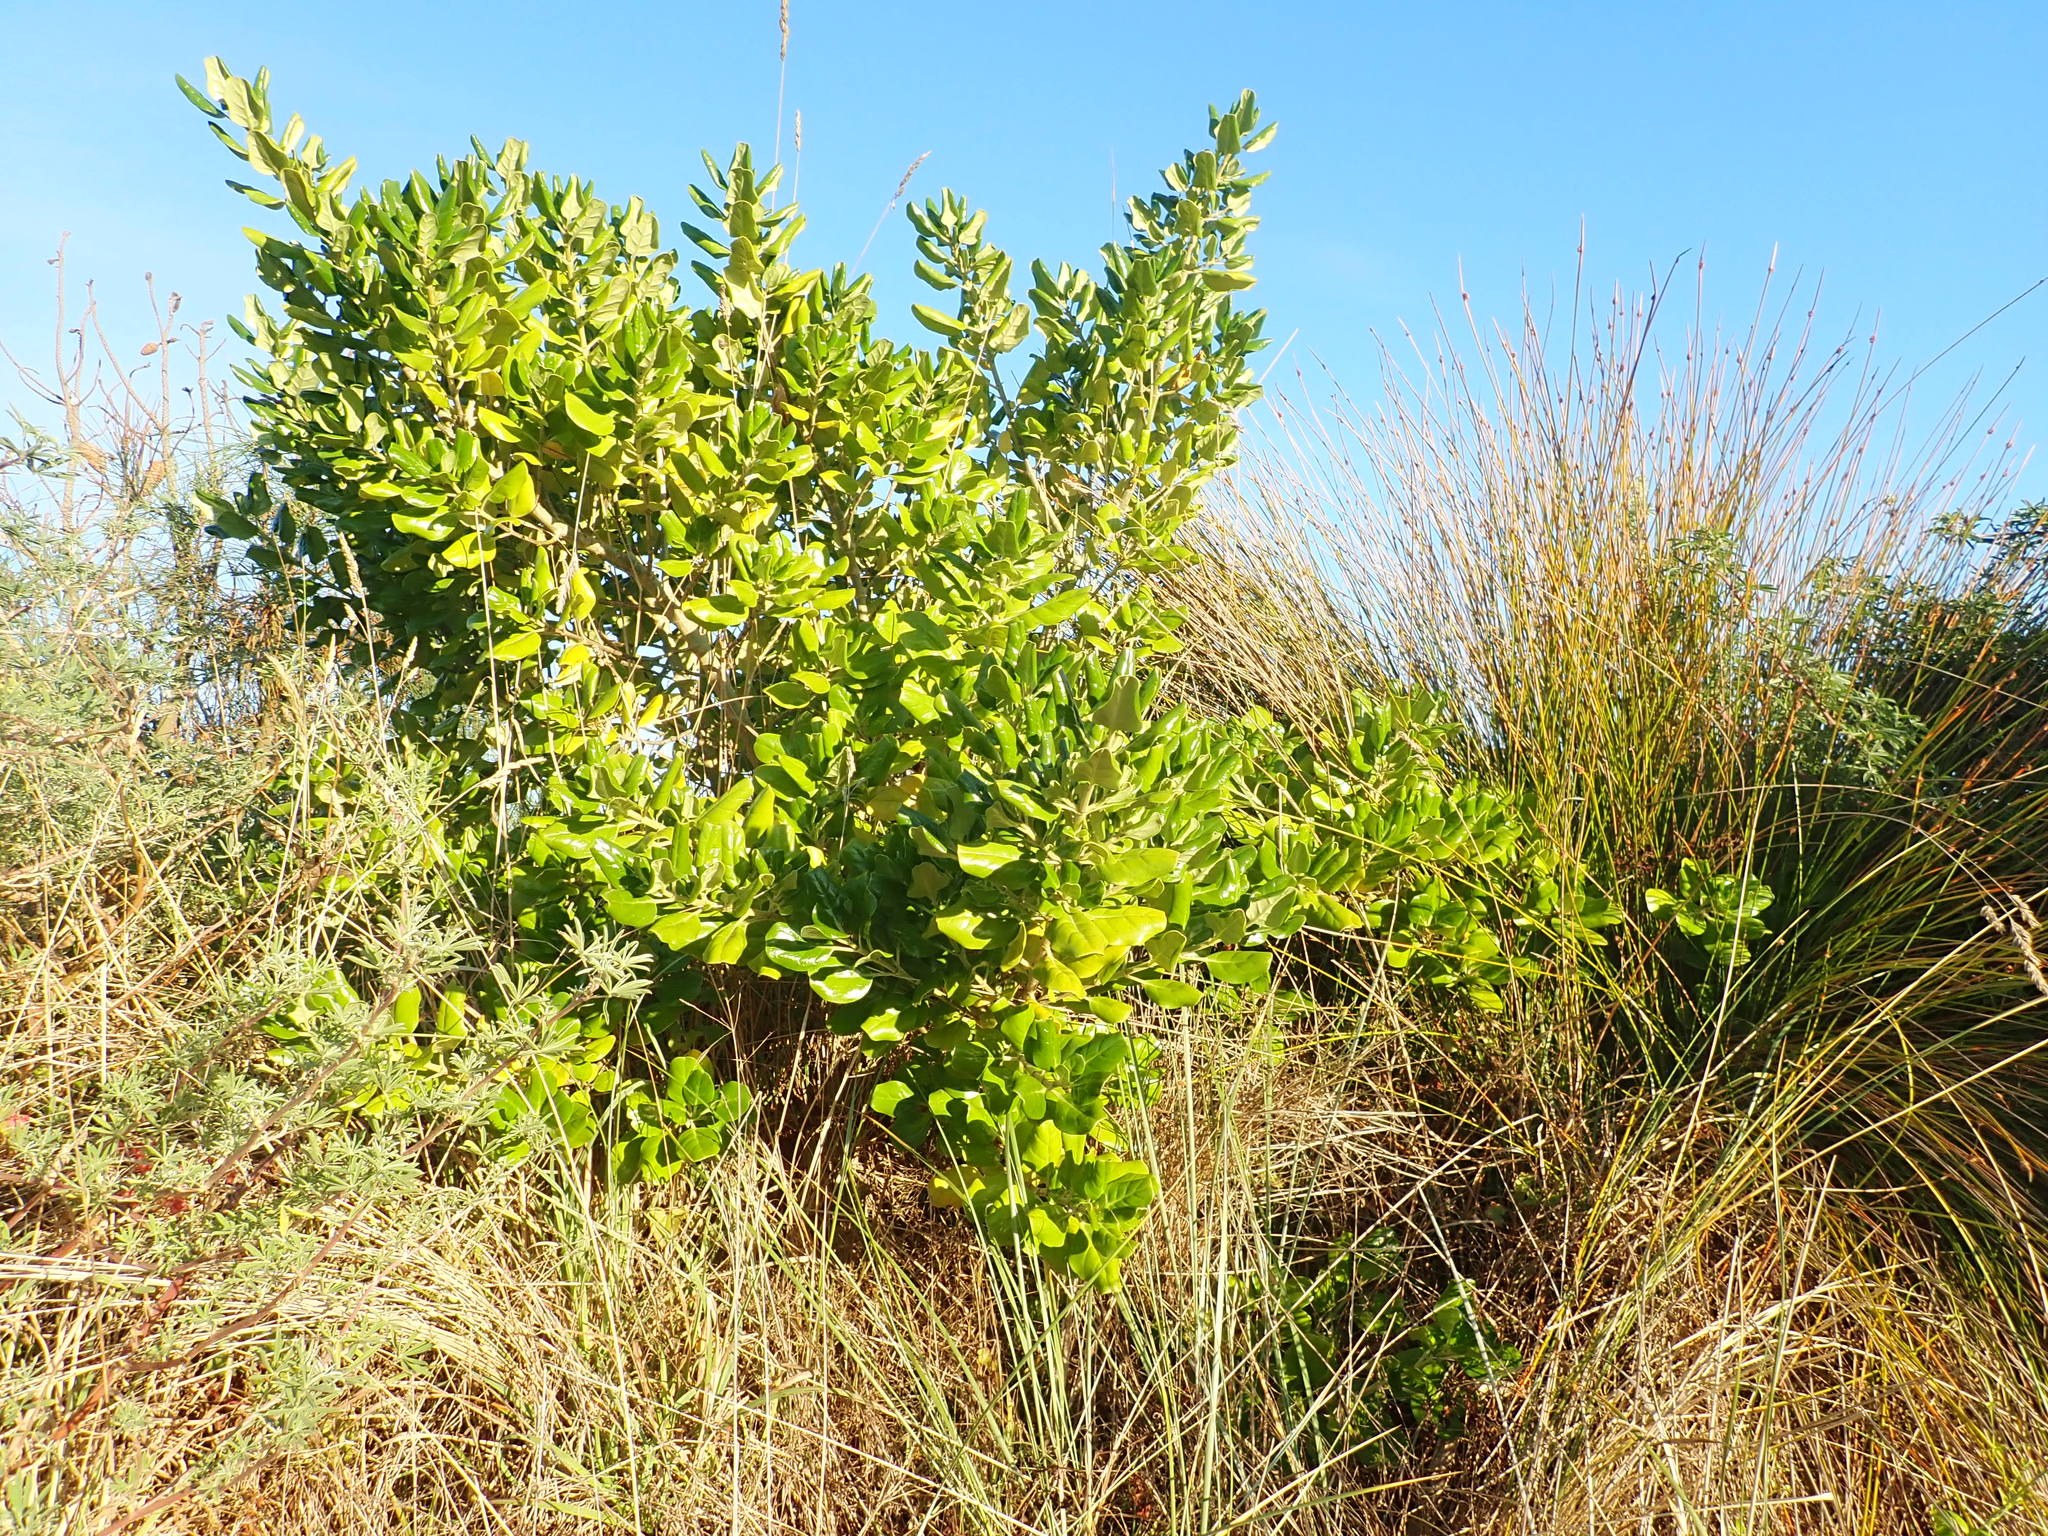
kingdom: Plantae
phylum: Tracheophyta
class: Magnoliopsida
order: Gentianales
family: Rubiaceae
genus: Coprosma
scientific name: Coprosma repens
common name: Tree bedstraw
